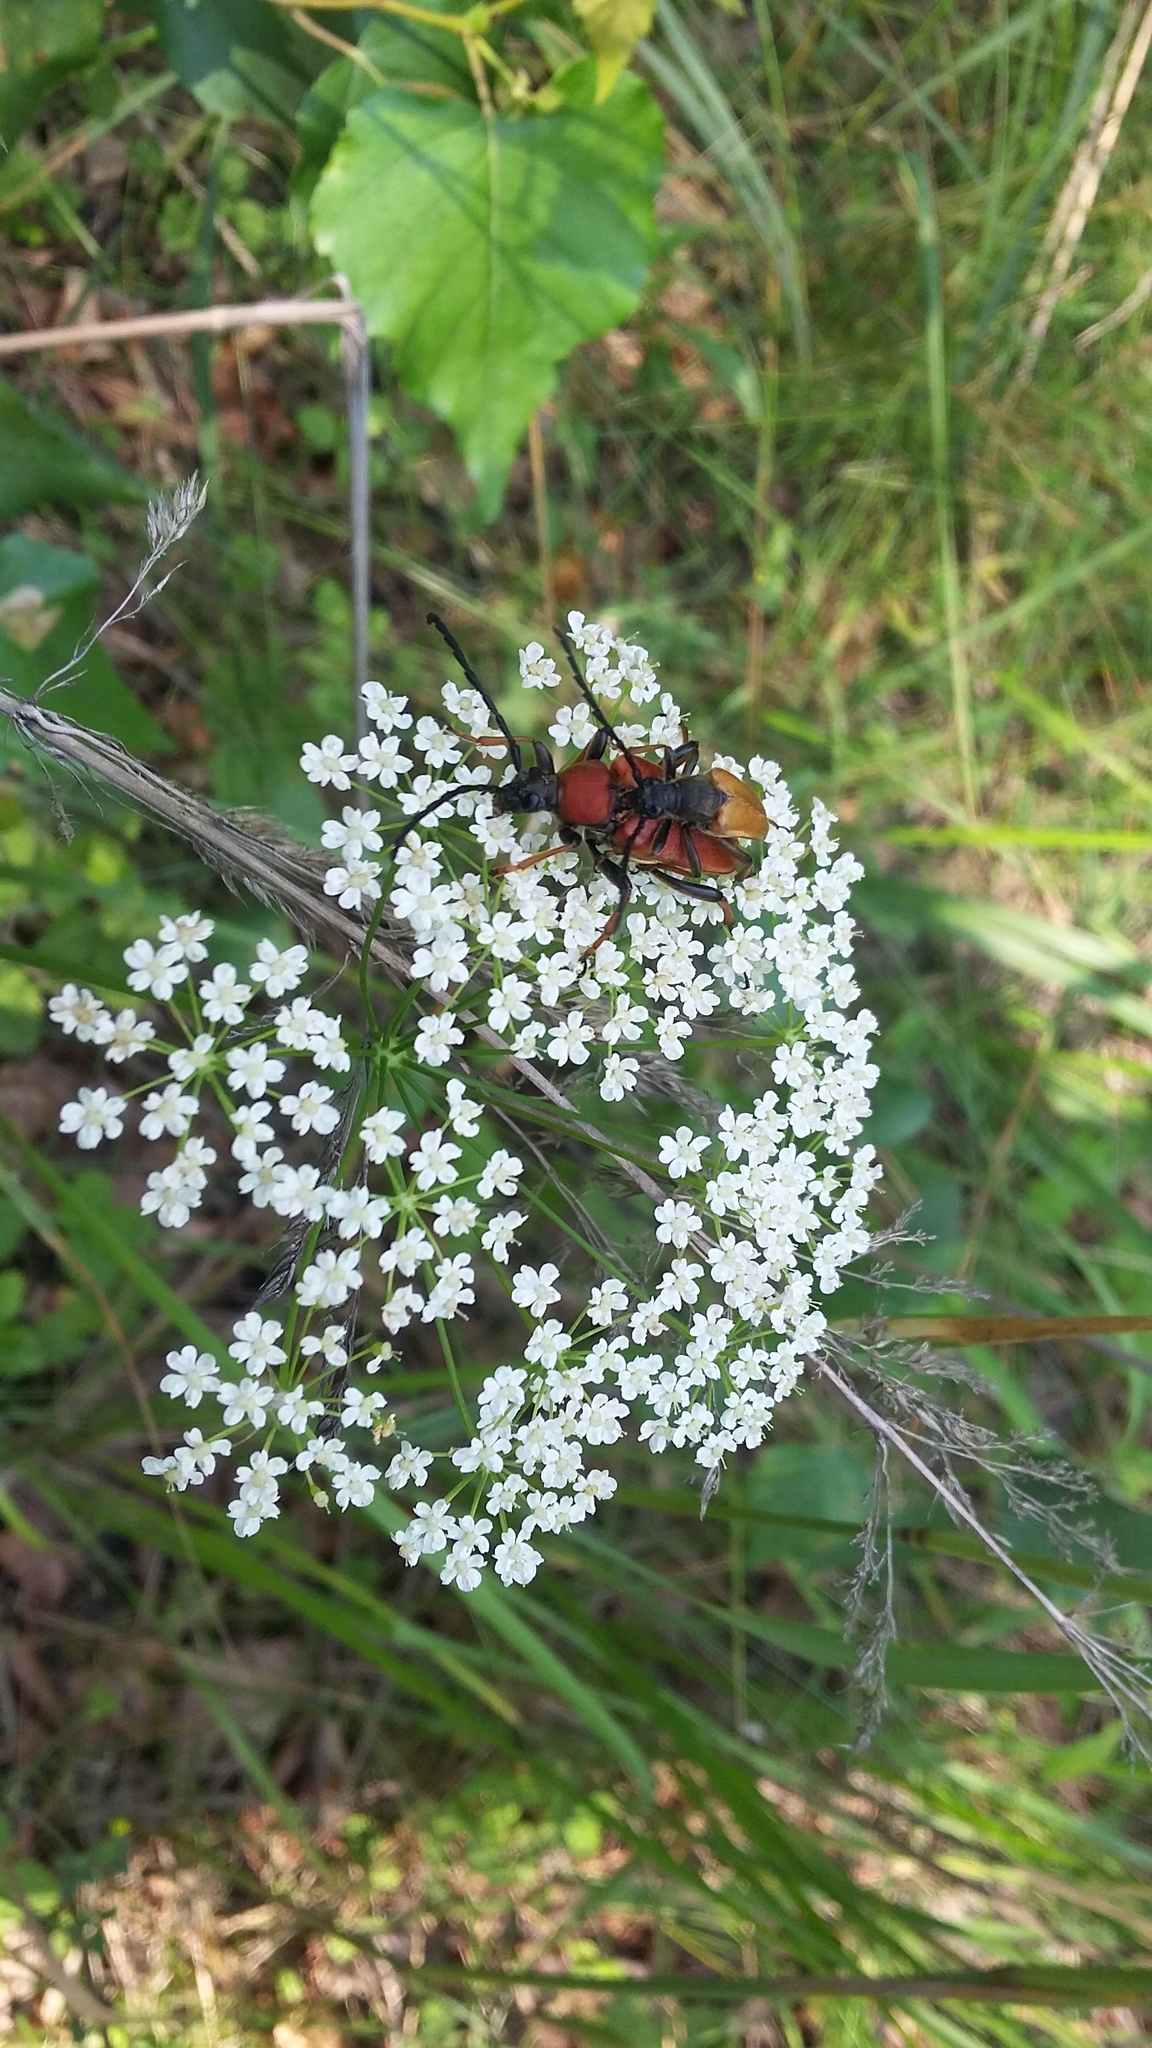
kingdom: Animalia
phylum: Arthropoda
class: Insecta
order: Coleoptera
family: Cerambycidae
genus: Stictoleptura
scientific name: Stictoleptura rubra
